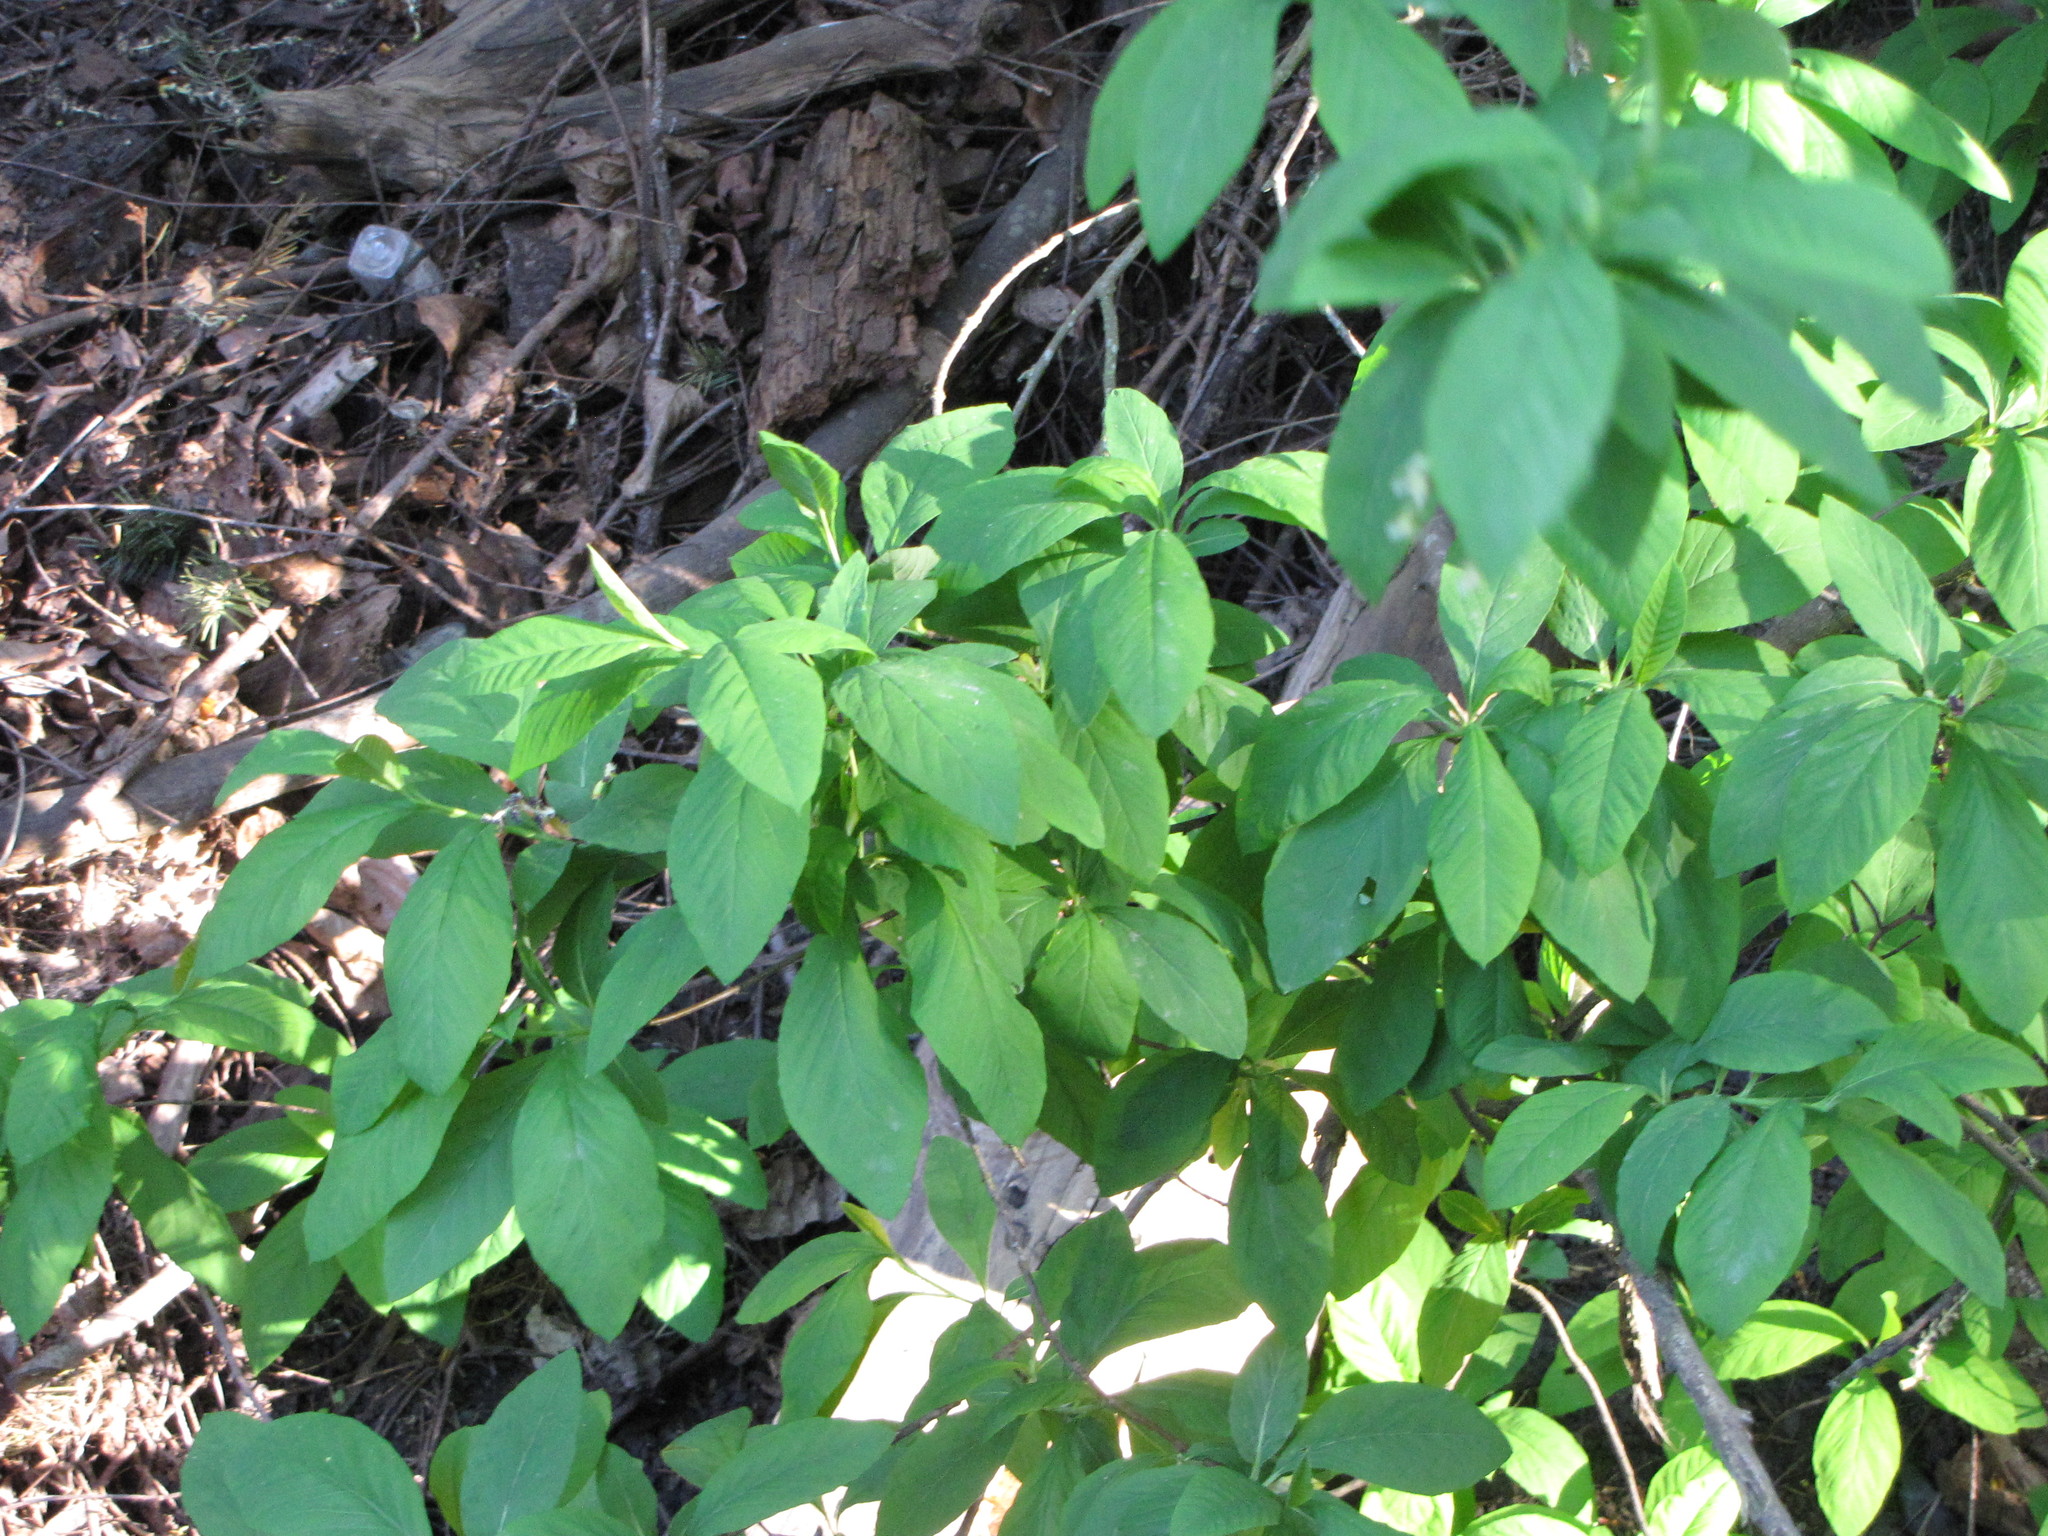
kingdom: Plantae
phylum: Tracheophyta
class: Magnoliopsida
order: Rosales
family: Rosaceae
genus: Oemleria
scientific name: Oemleria cerasiformis
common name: Osoberry
